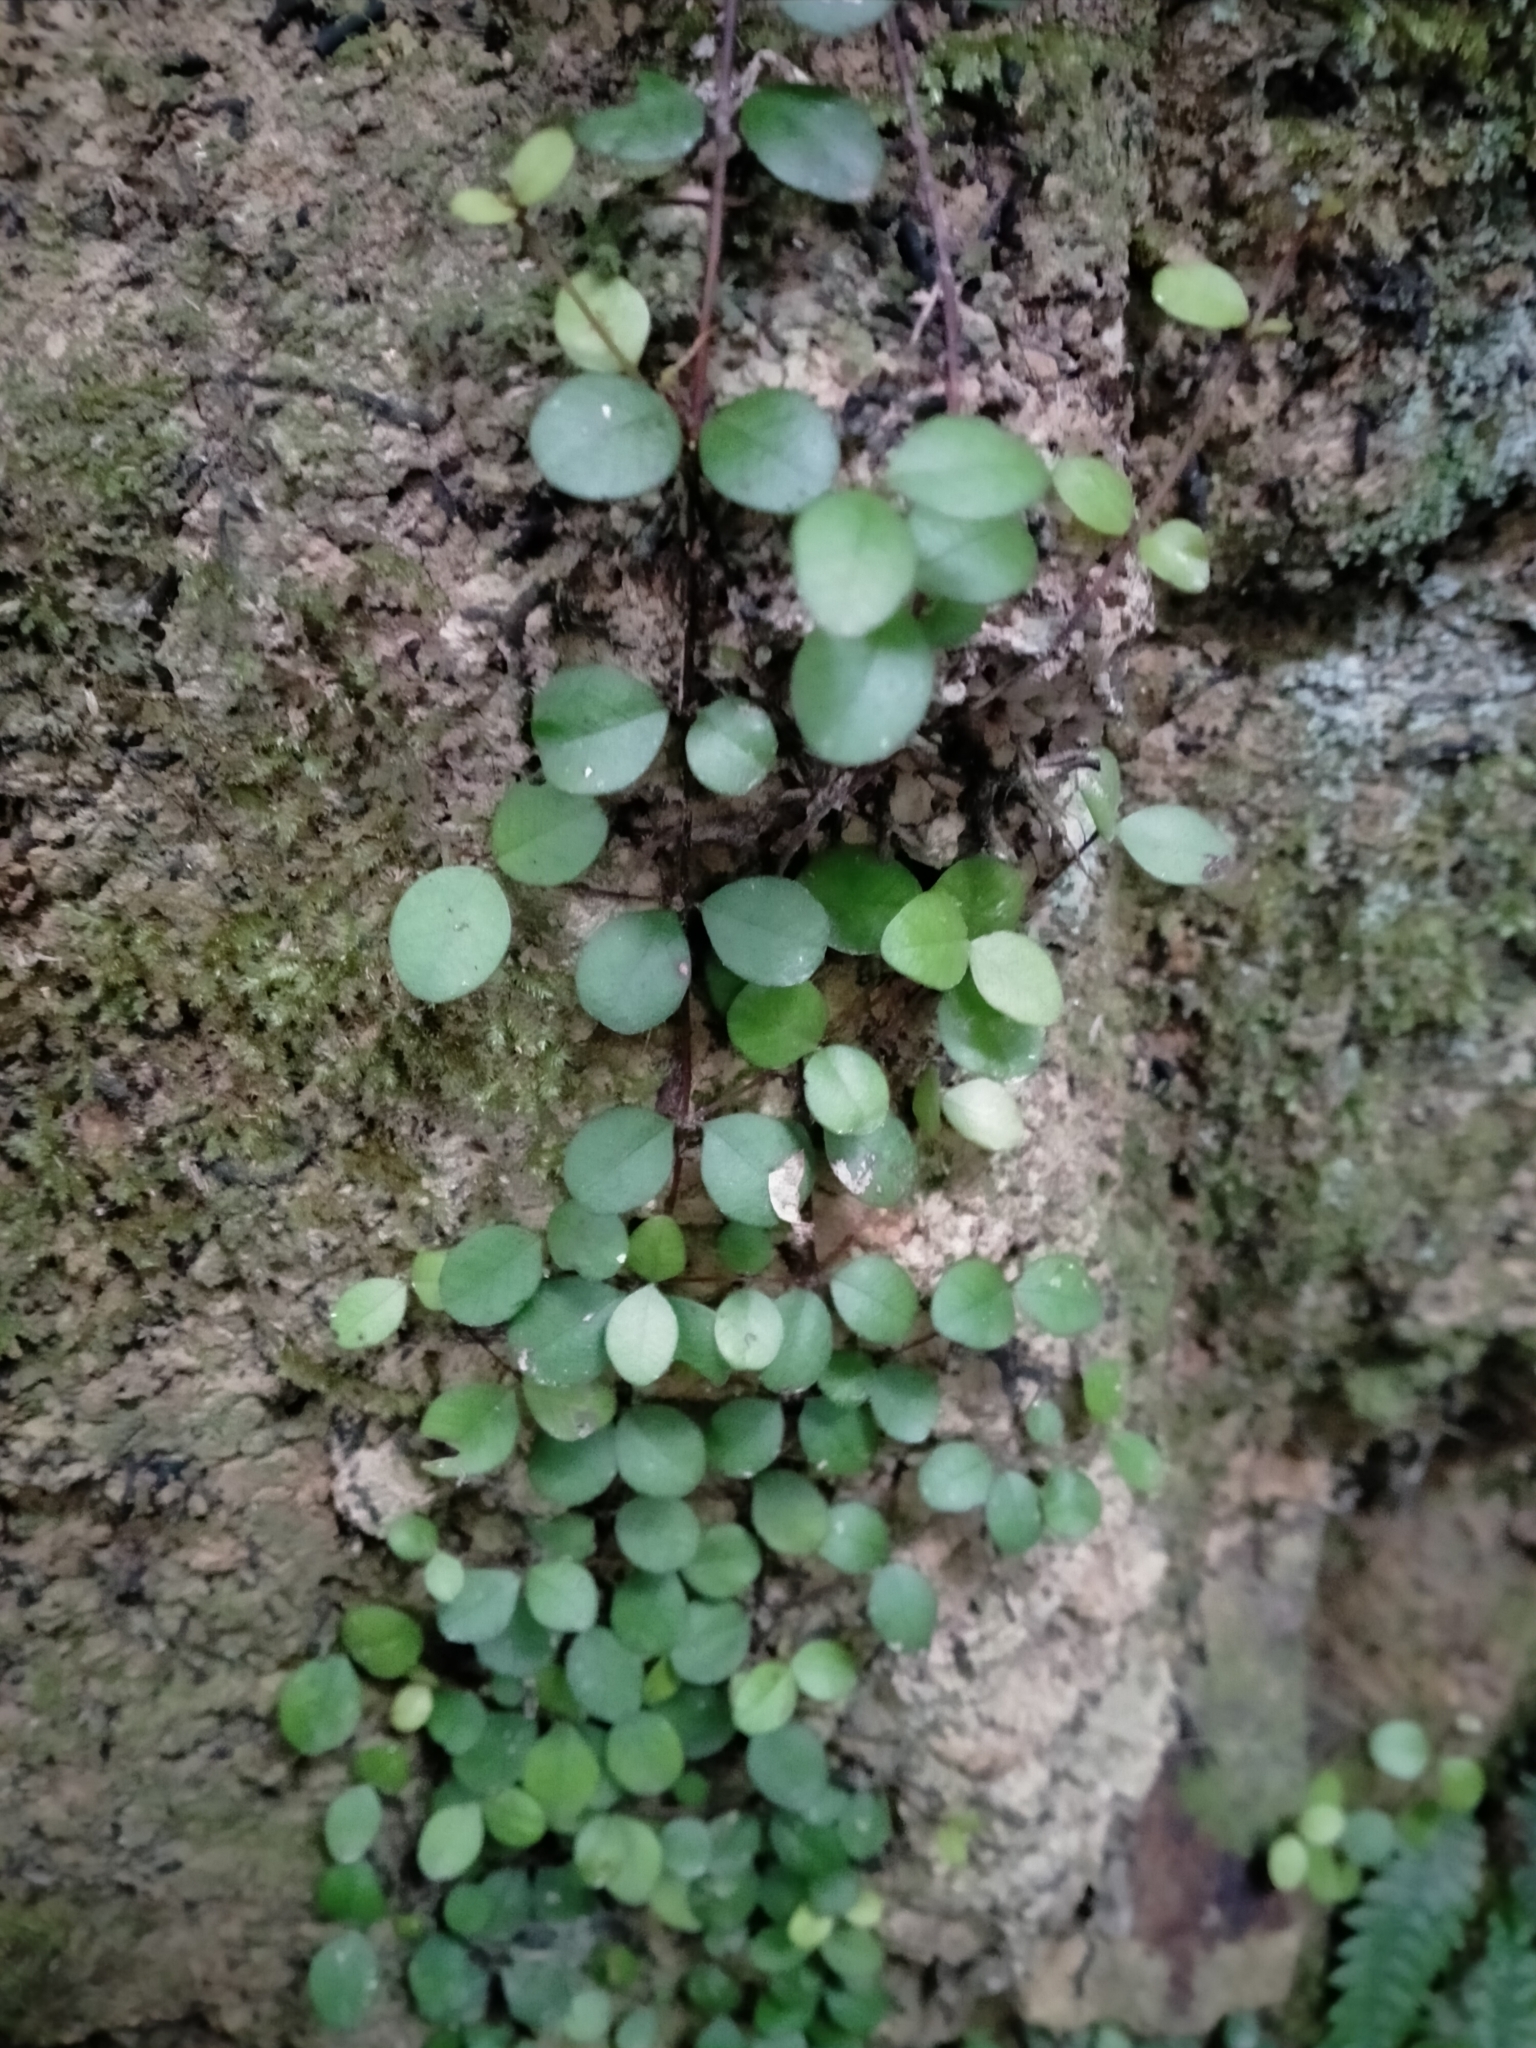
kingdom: Plantae
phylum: Tracheophyta
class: Magnoliopsida
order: Myrtales
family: Myrtaceae
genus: Metrosideros
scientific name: Metrosideros fulgens
